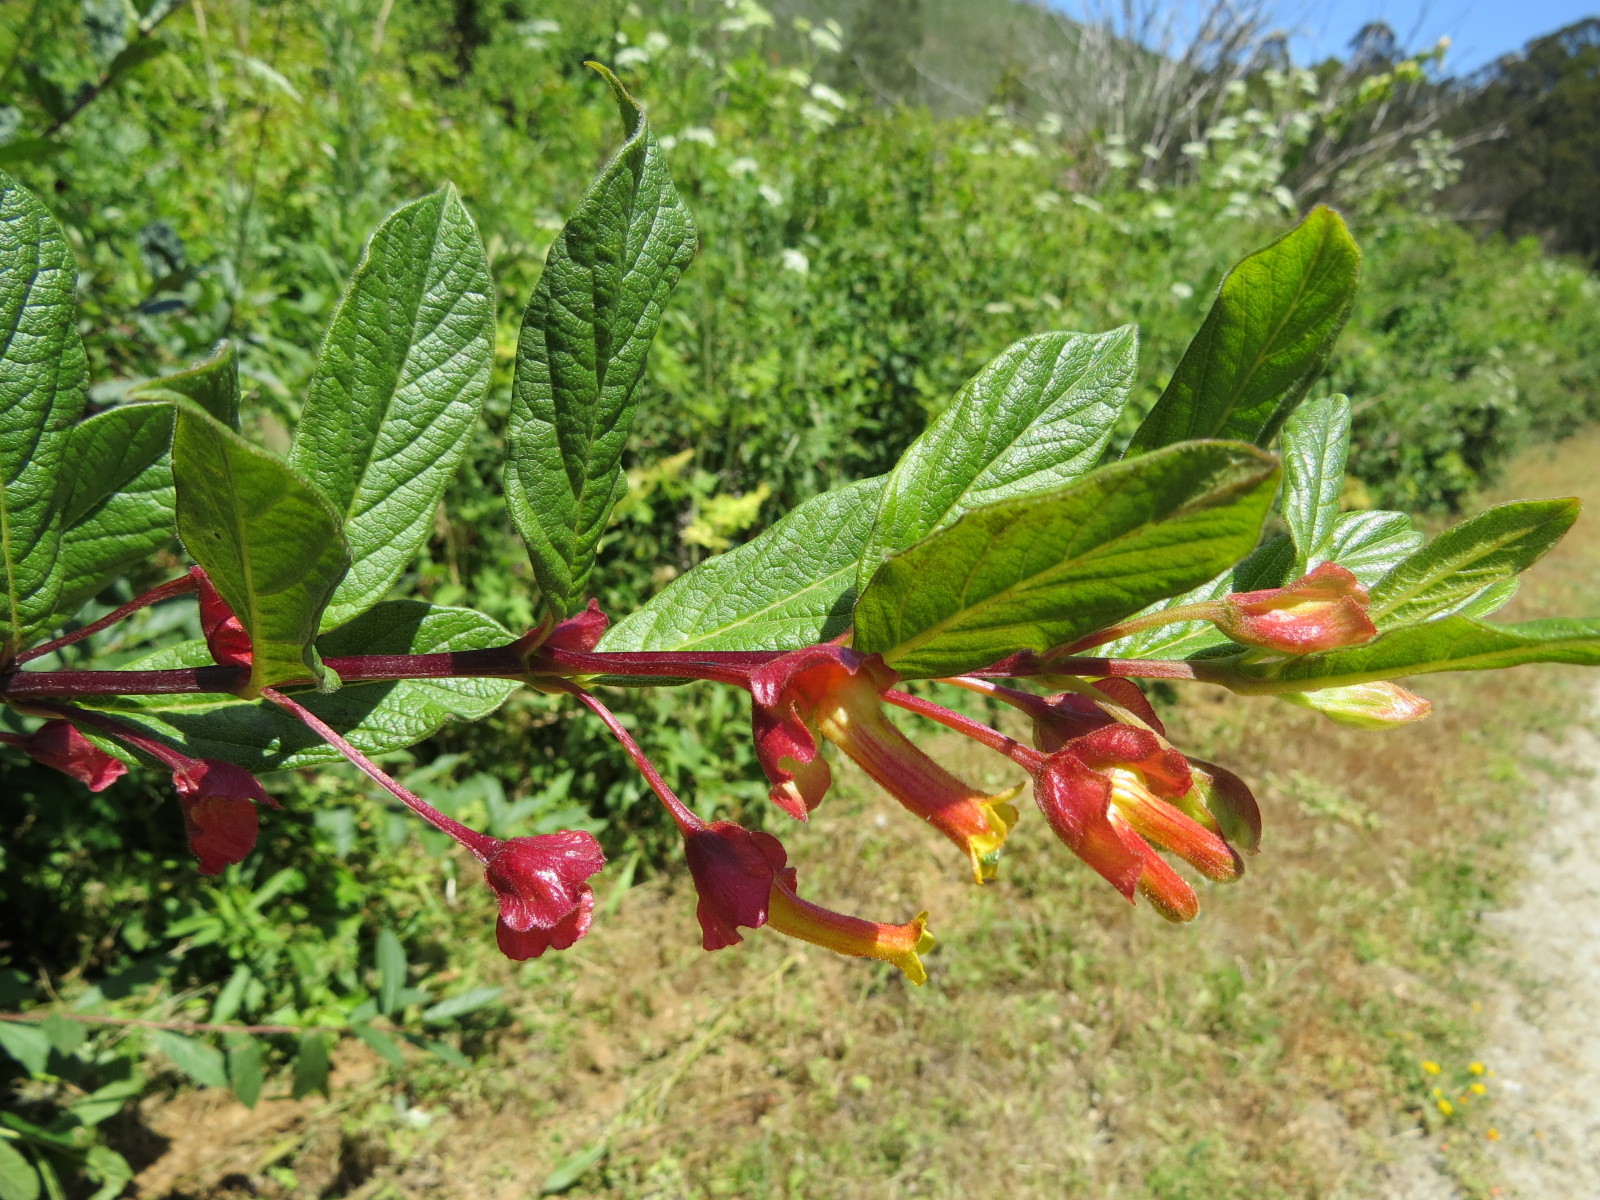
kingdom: Plantae
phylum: Tracheophyta
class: Magnoliopsida
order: Dipsacales
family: Caprifoliaceae
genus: Lonicera
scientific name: Lonicera involucrata
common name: Californian honeysuckle
